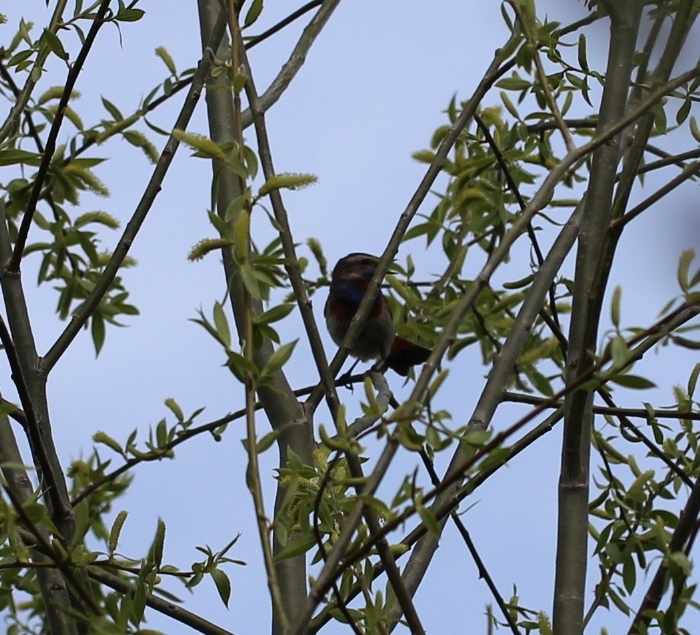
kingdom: Animalia
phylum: Chordata
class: Aves
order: Passeriformes
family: Muscicapidae
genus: Luscinia
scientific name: Luscinia svecica
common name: Bluethroat
